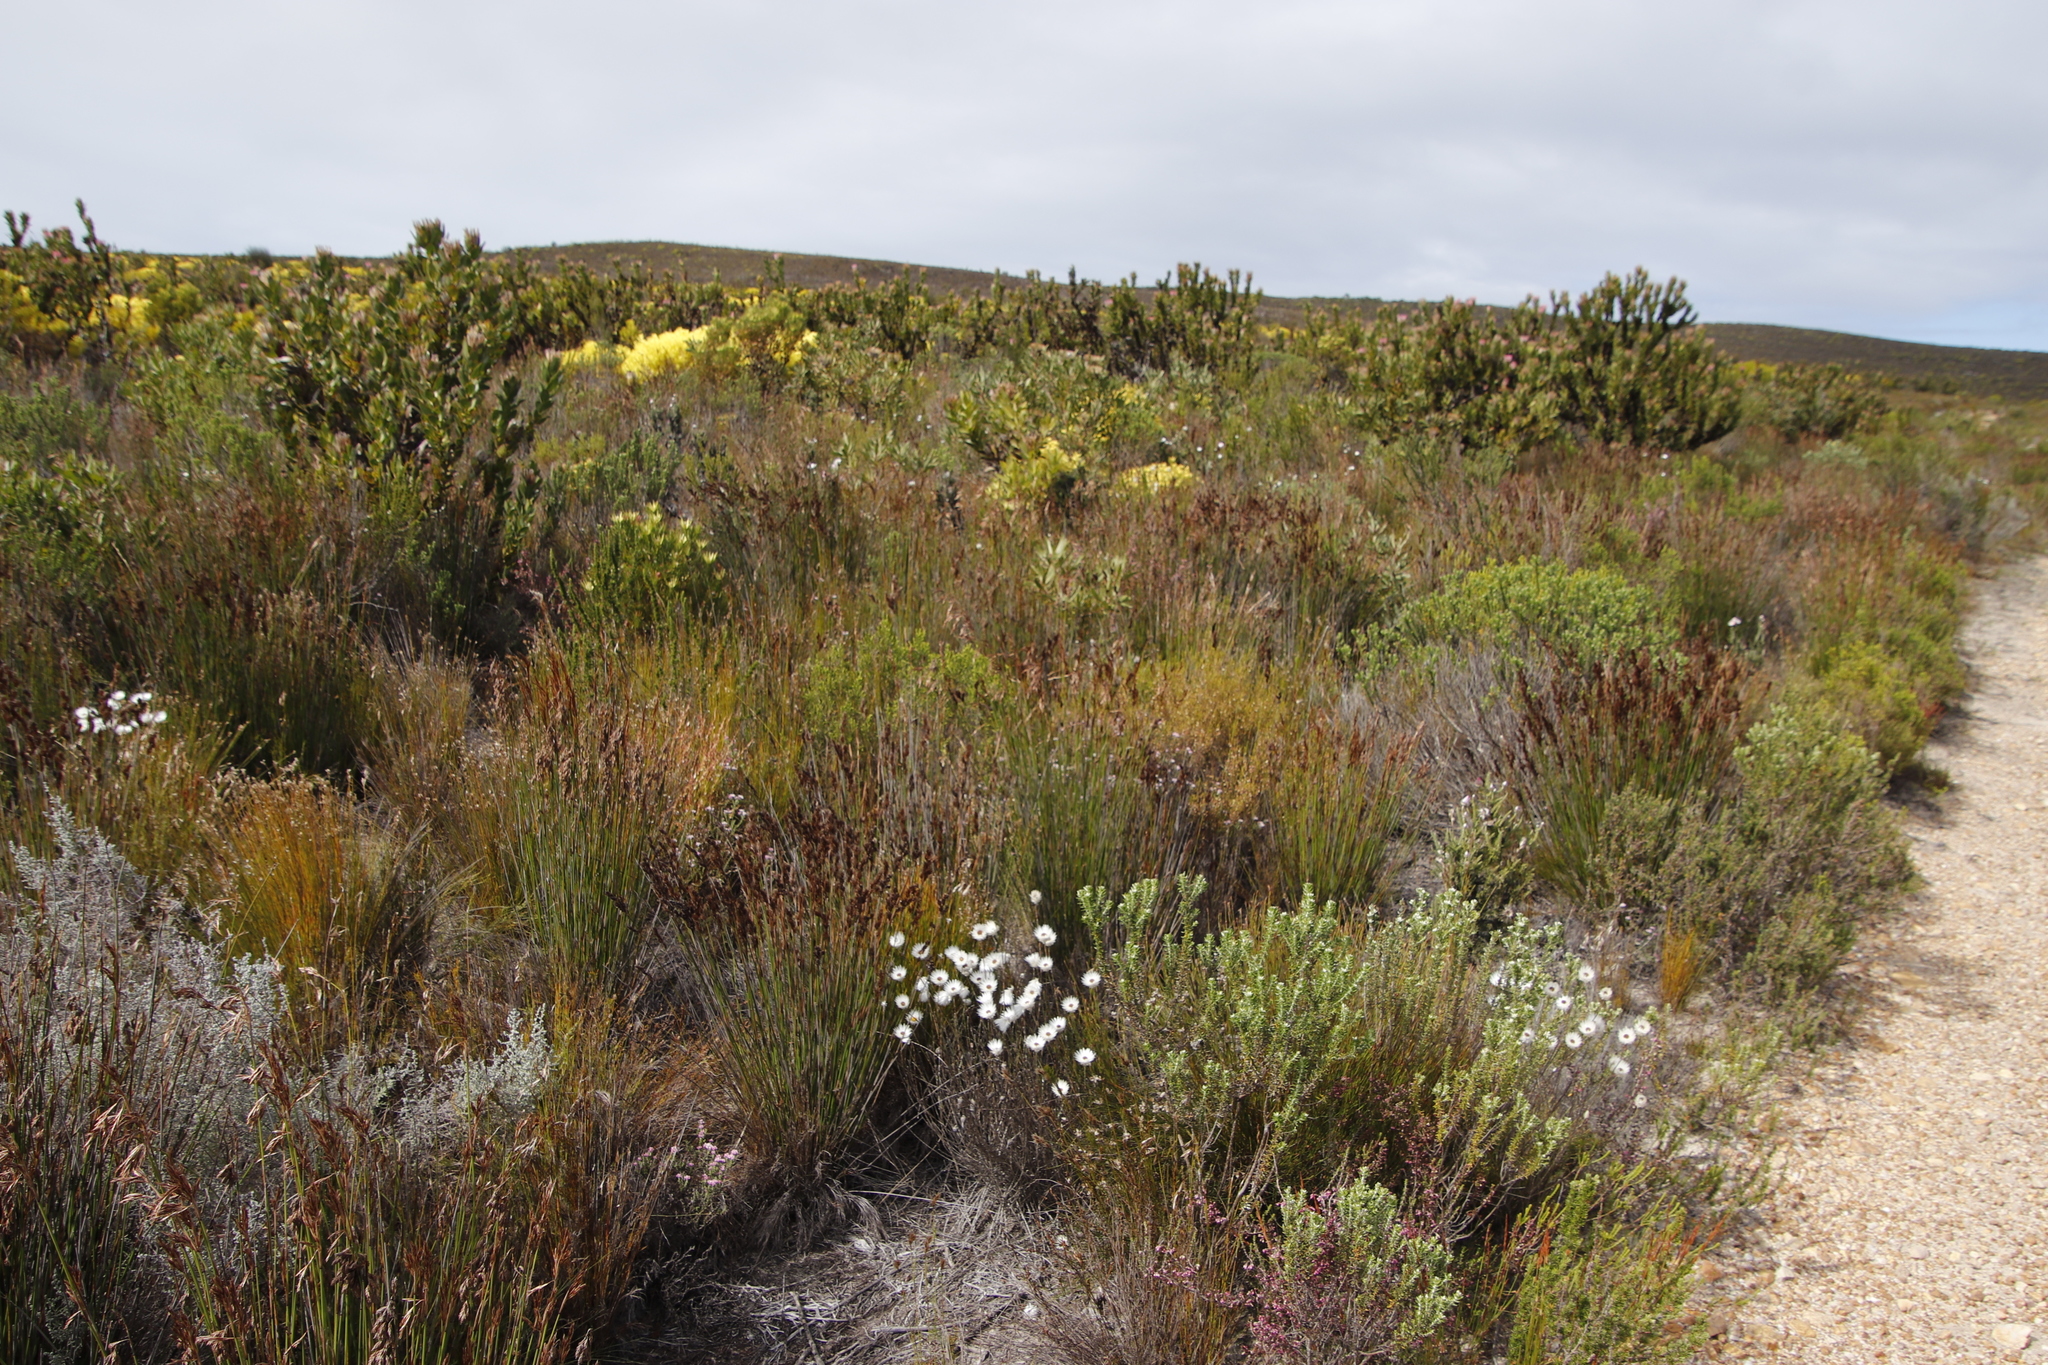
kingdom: Plantae
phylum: Tracheophyta
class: Magnoliopsida
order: Proteales
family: Proteaceae
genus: Leucadendron
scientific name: Leucadendron platyspermum
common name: Plate-seed conebush
